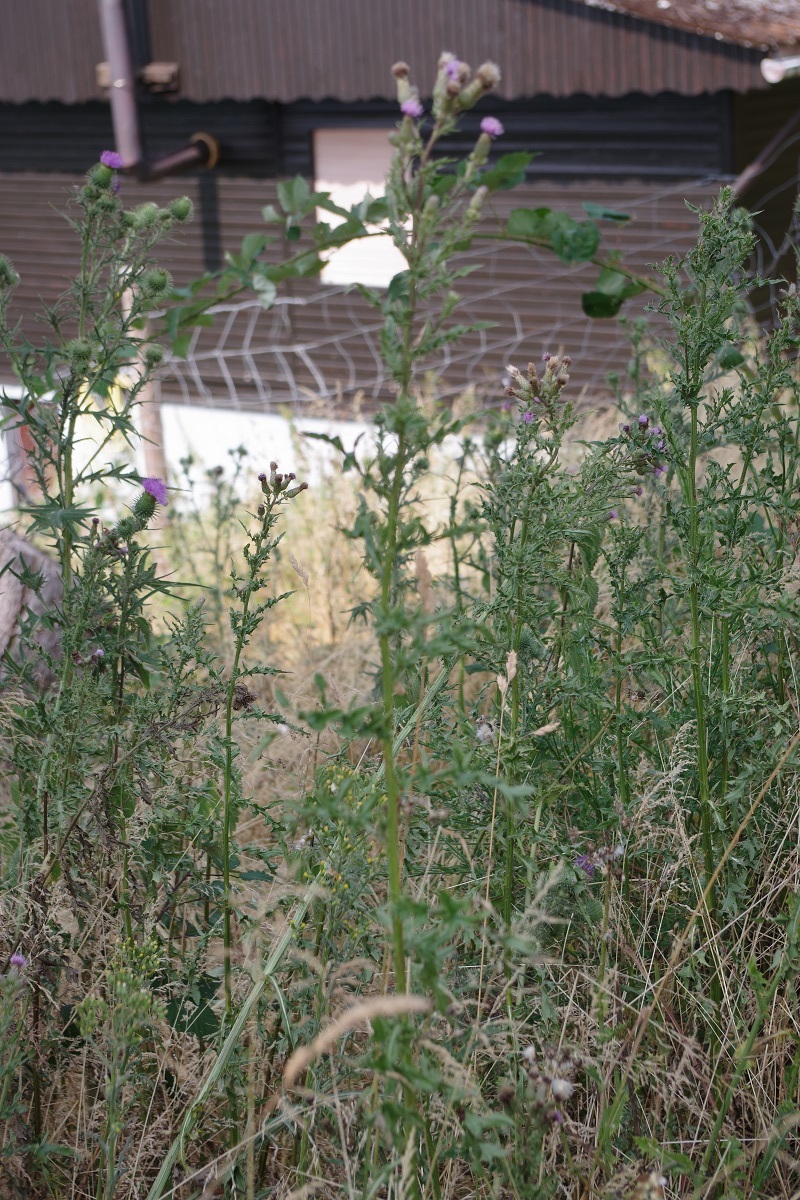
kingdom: Plantae
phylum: Tracheophyta
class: Magnoliopsida
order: Asterales
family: Asteraceae
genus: Cirsium
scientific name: Cirsium arvense
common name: Creeping thistle
